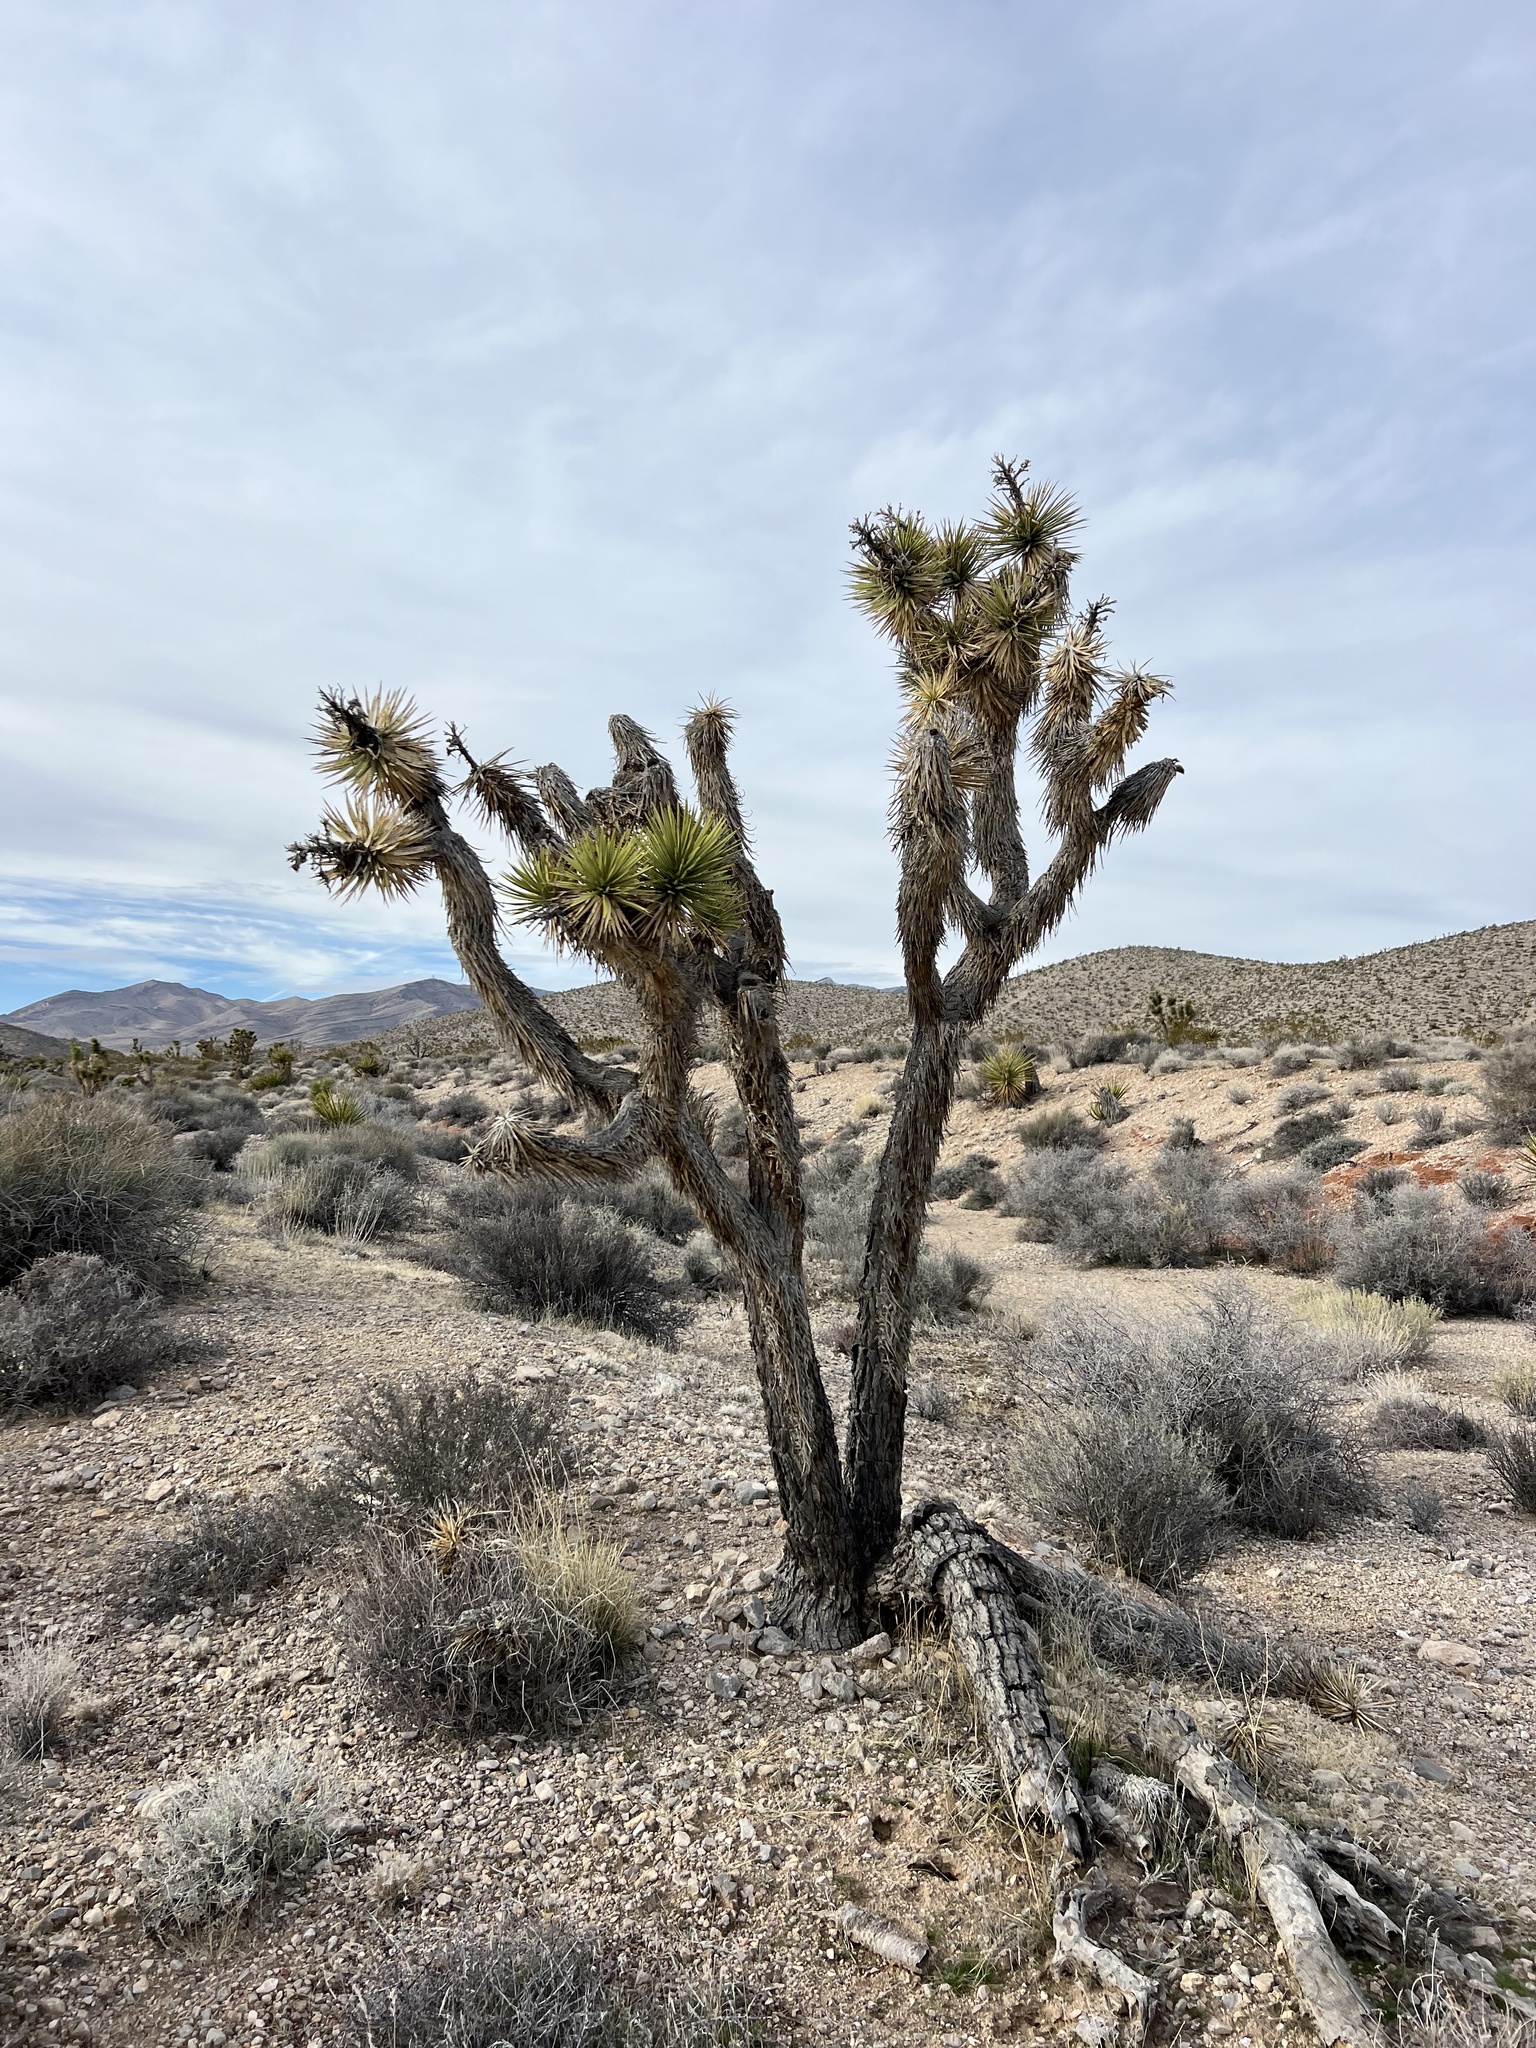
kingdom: Plantae
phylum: Tracheophyta
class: Liliopsida
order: Asparagales
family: Asparagaceae
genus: Yucca
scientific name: Yucca brevifolia
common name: Joshua tree
